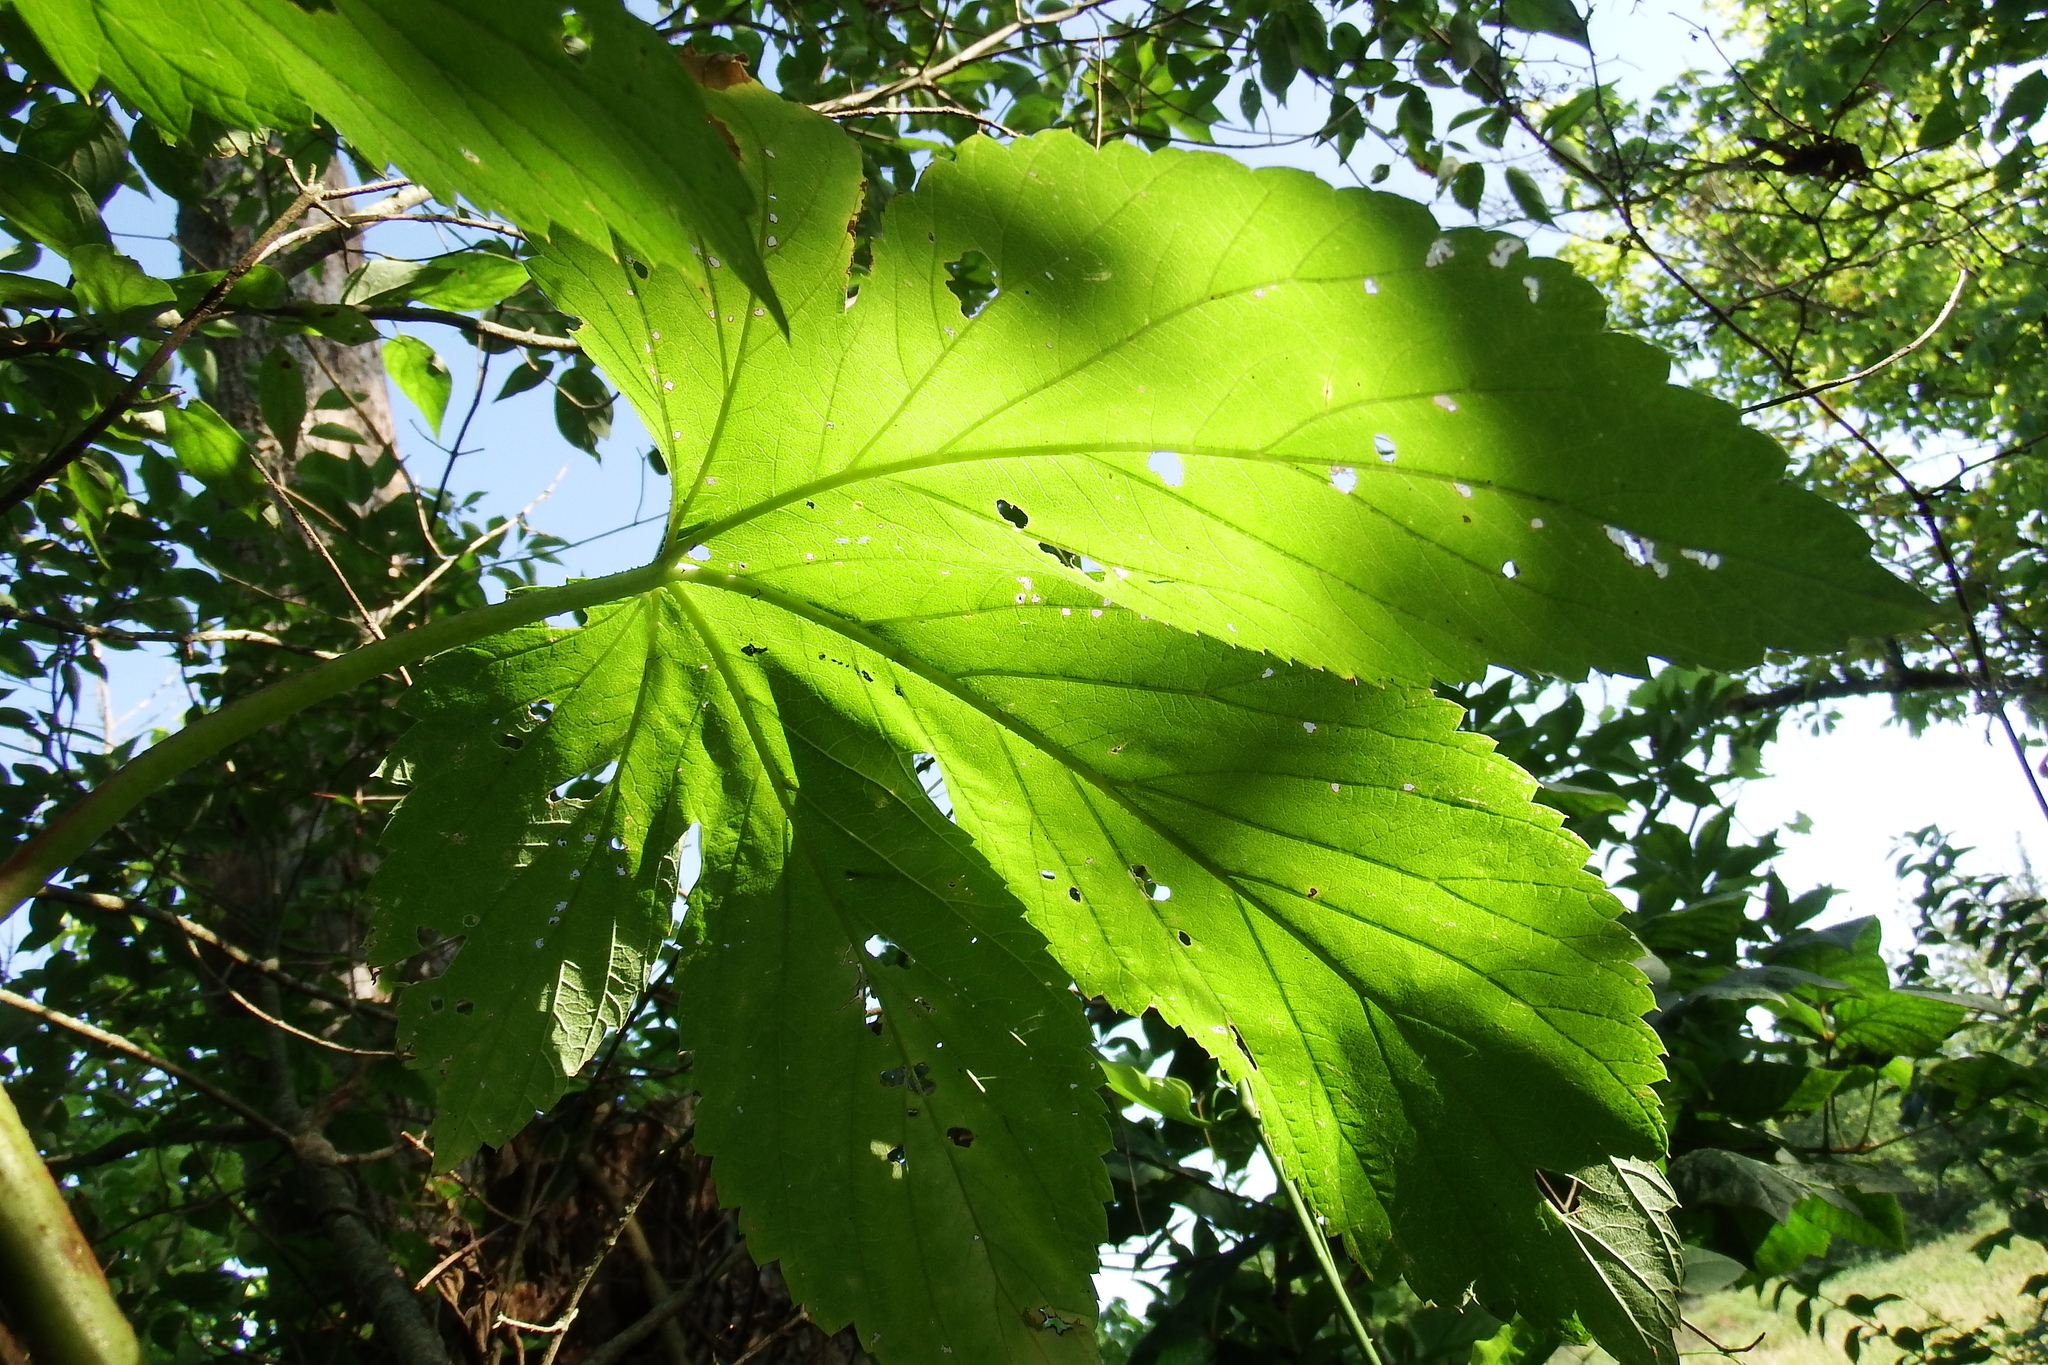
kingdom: Plantae
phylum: Tracheophyta
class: Magnoliopsida
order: Rosales
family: Cannabaceae
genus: Humulus
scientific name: Humulus lupulus
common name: Hop
